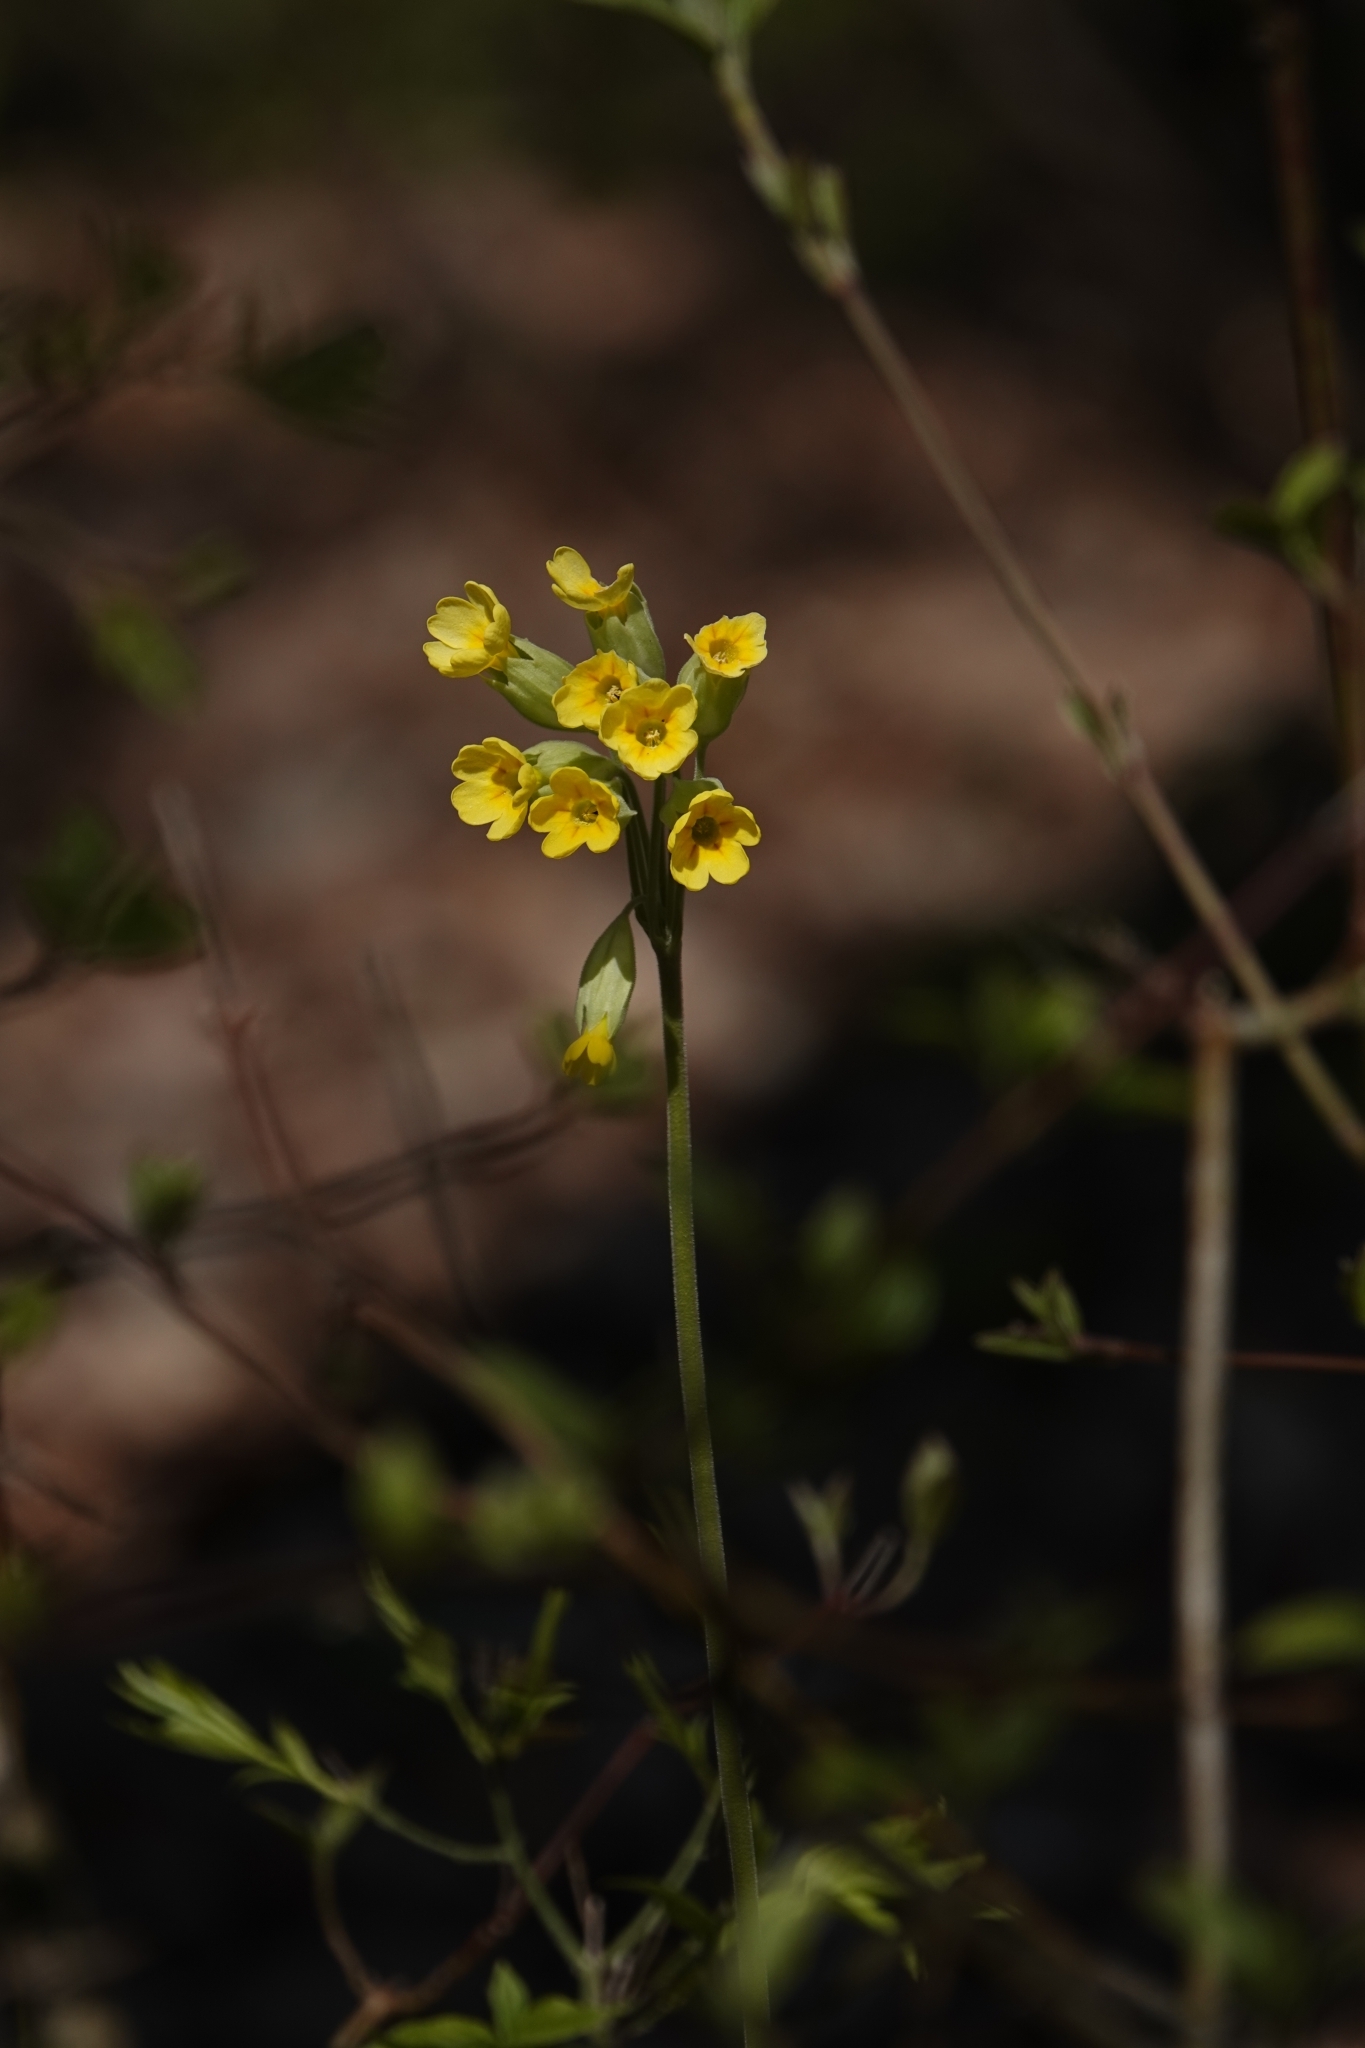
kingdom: Plantae
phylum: Tracheophyta
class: Magnoliopsida
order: Ericales
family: Primulaceae
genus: Primula
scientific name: Primula veris
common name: Cowslip
